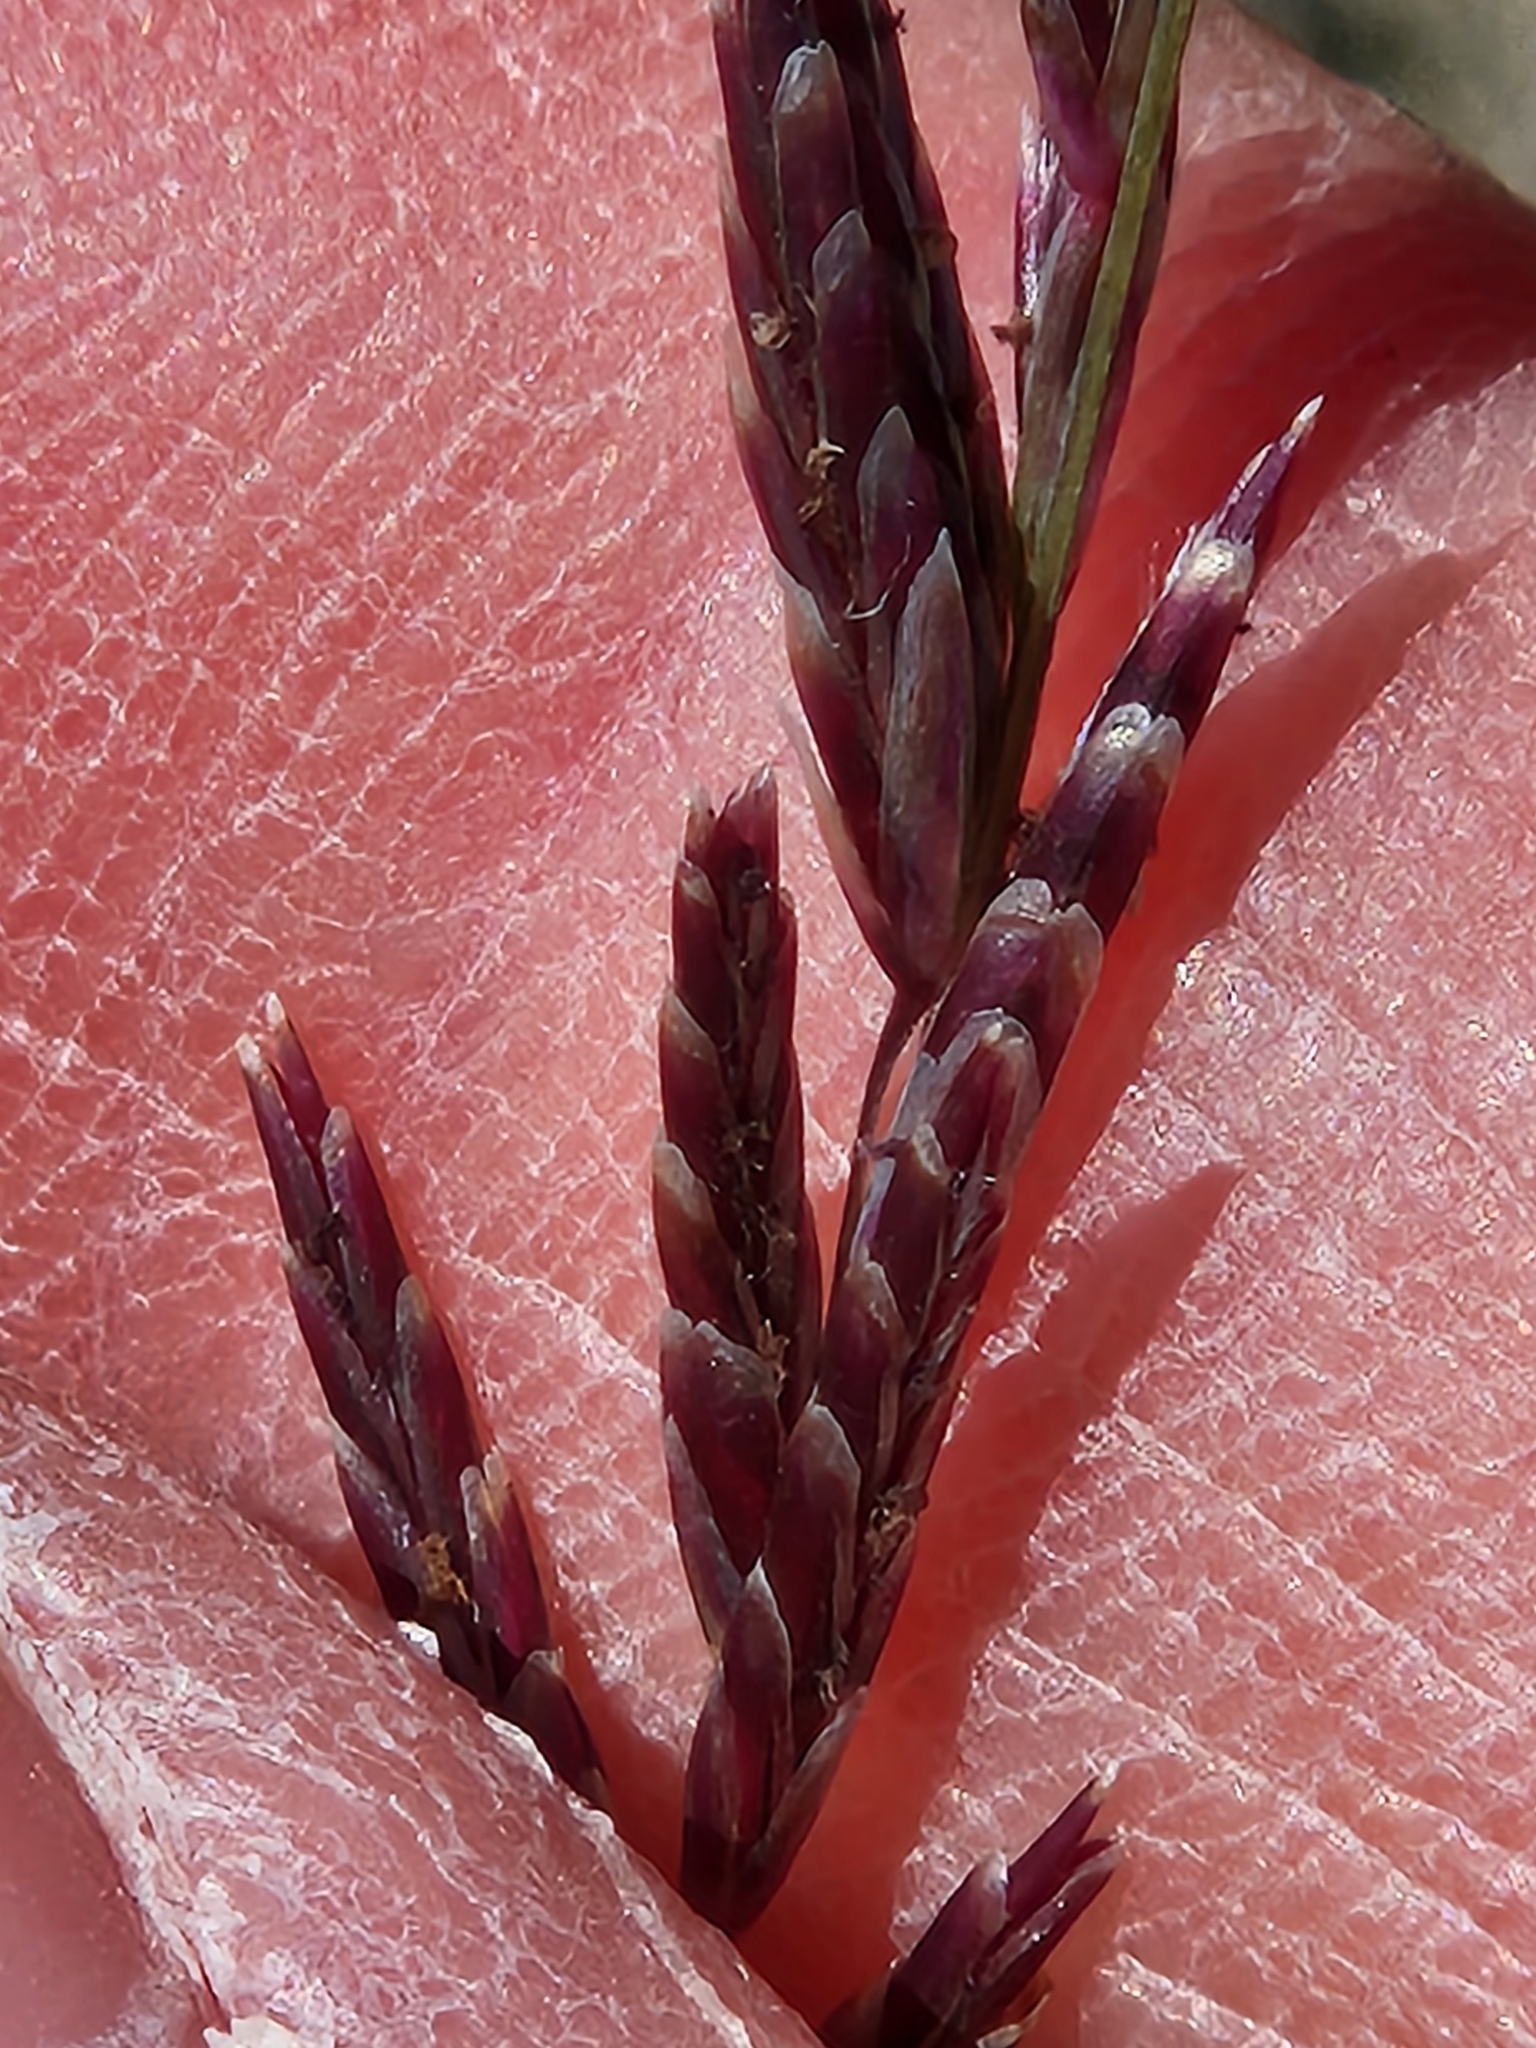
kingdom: Plantae
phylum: Tracheophyta
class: Liliopsida
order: Poales
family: Poaceae
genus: Tridentopsis
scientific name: Tridentopsis mutica
